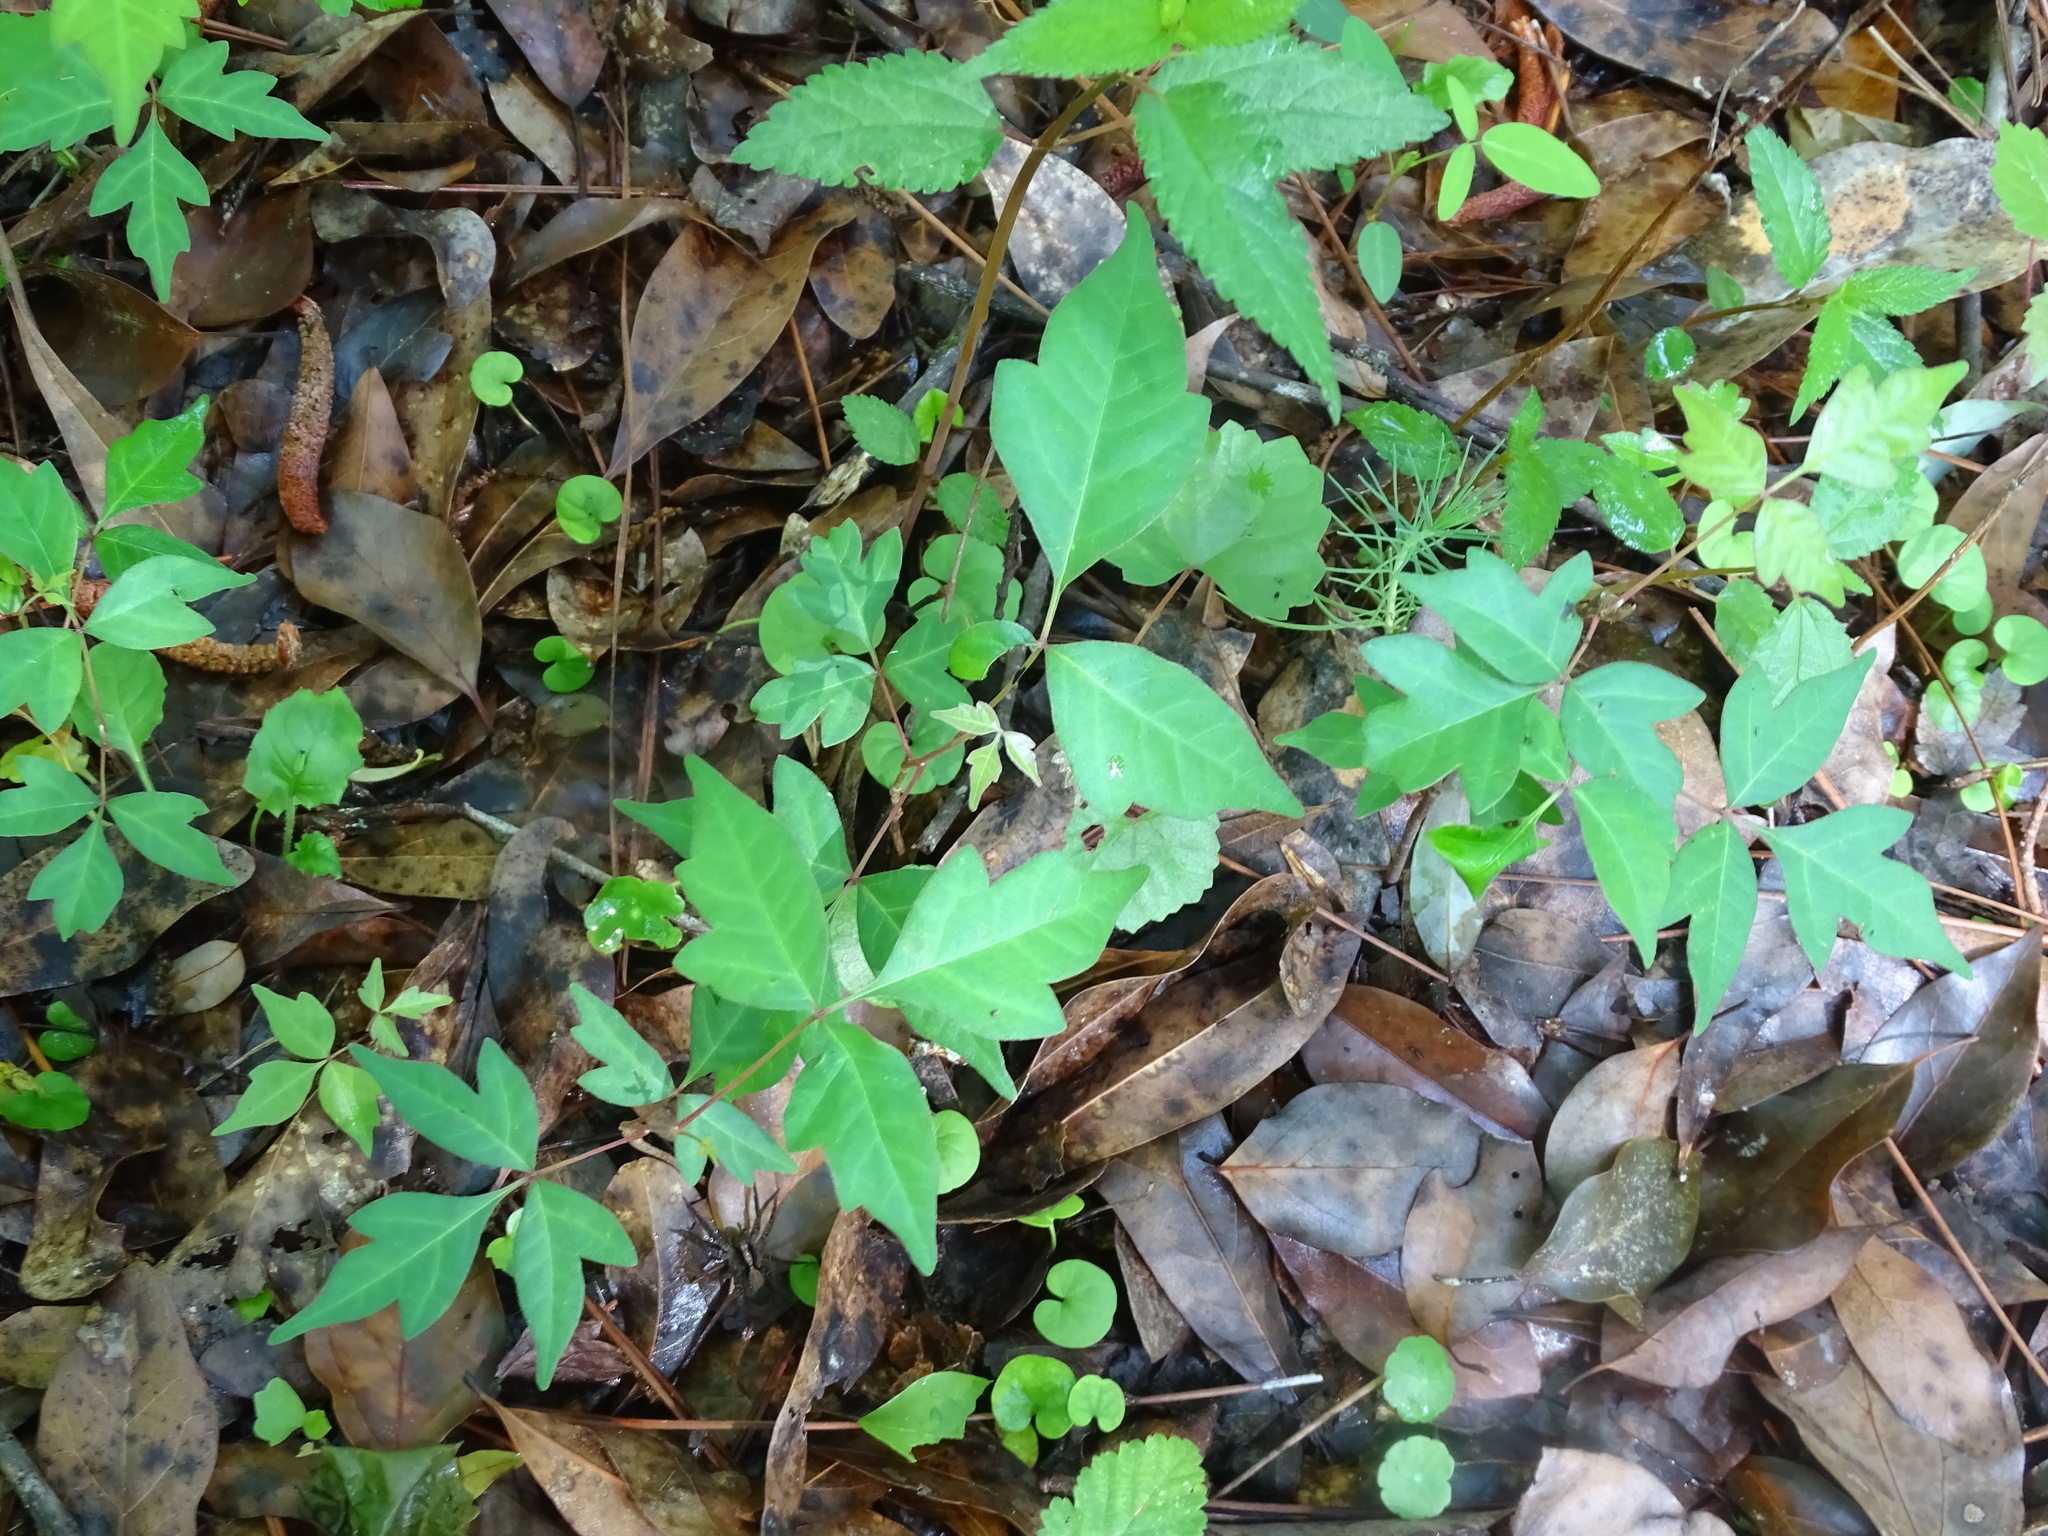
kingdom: Plantae
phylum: Tracheophyta
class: Magnoliopsida
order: Sapindales
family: Anacardiaceae
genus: Toxicodendron
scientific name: Toxicodendron radicans
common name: Poison ivy
